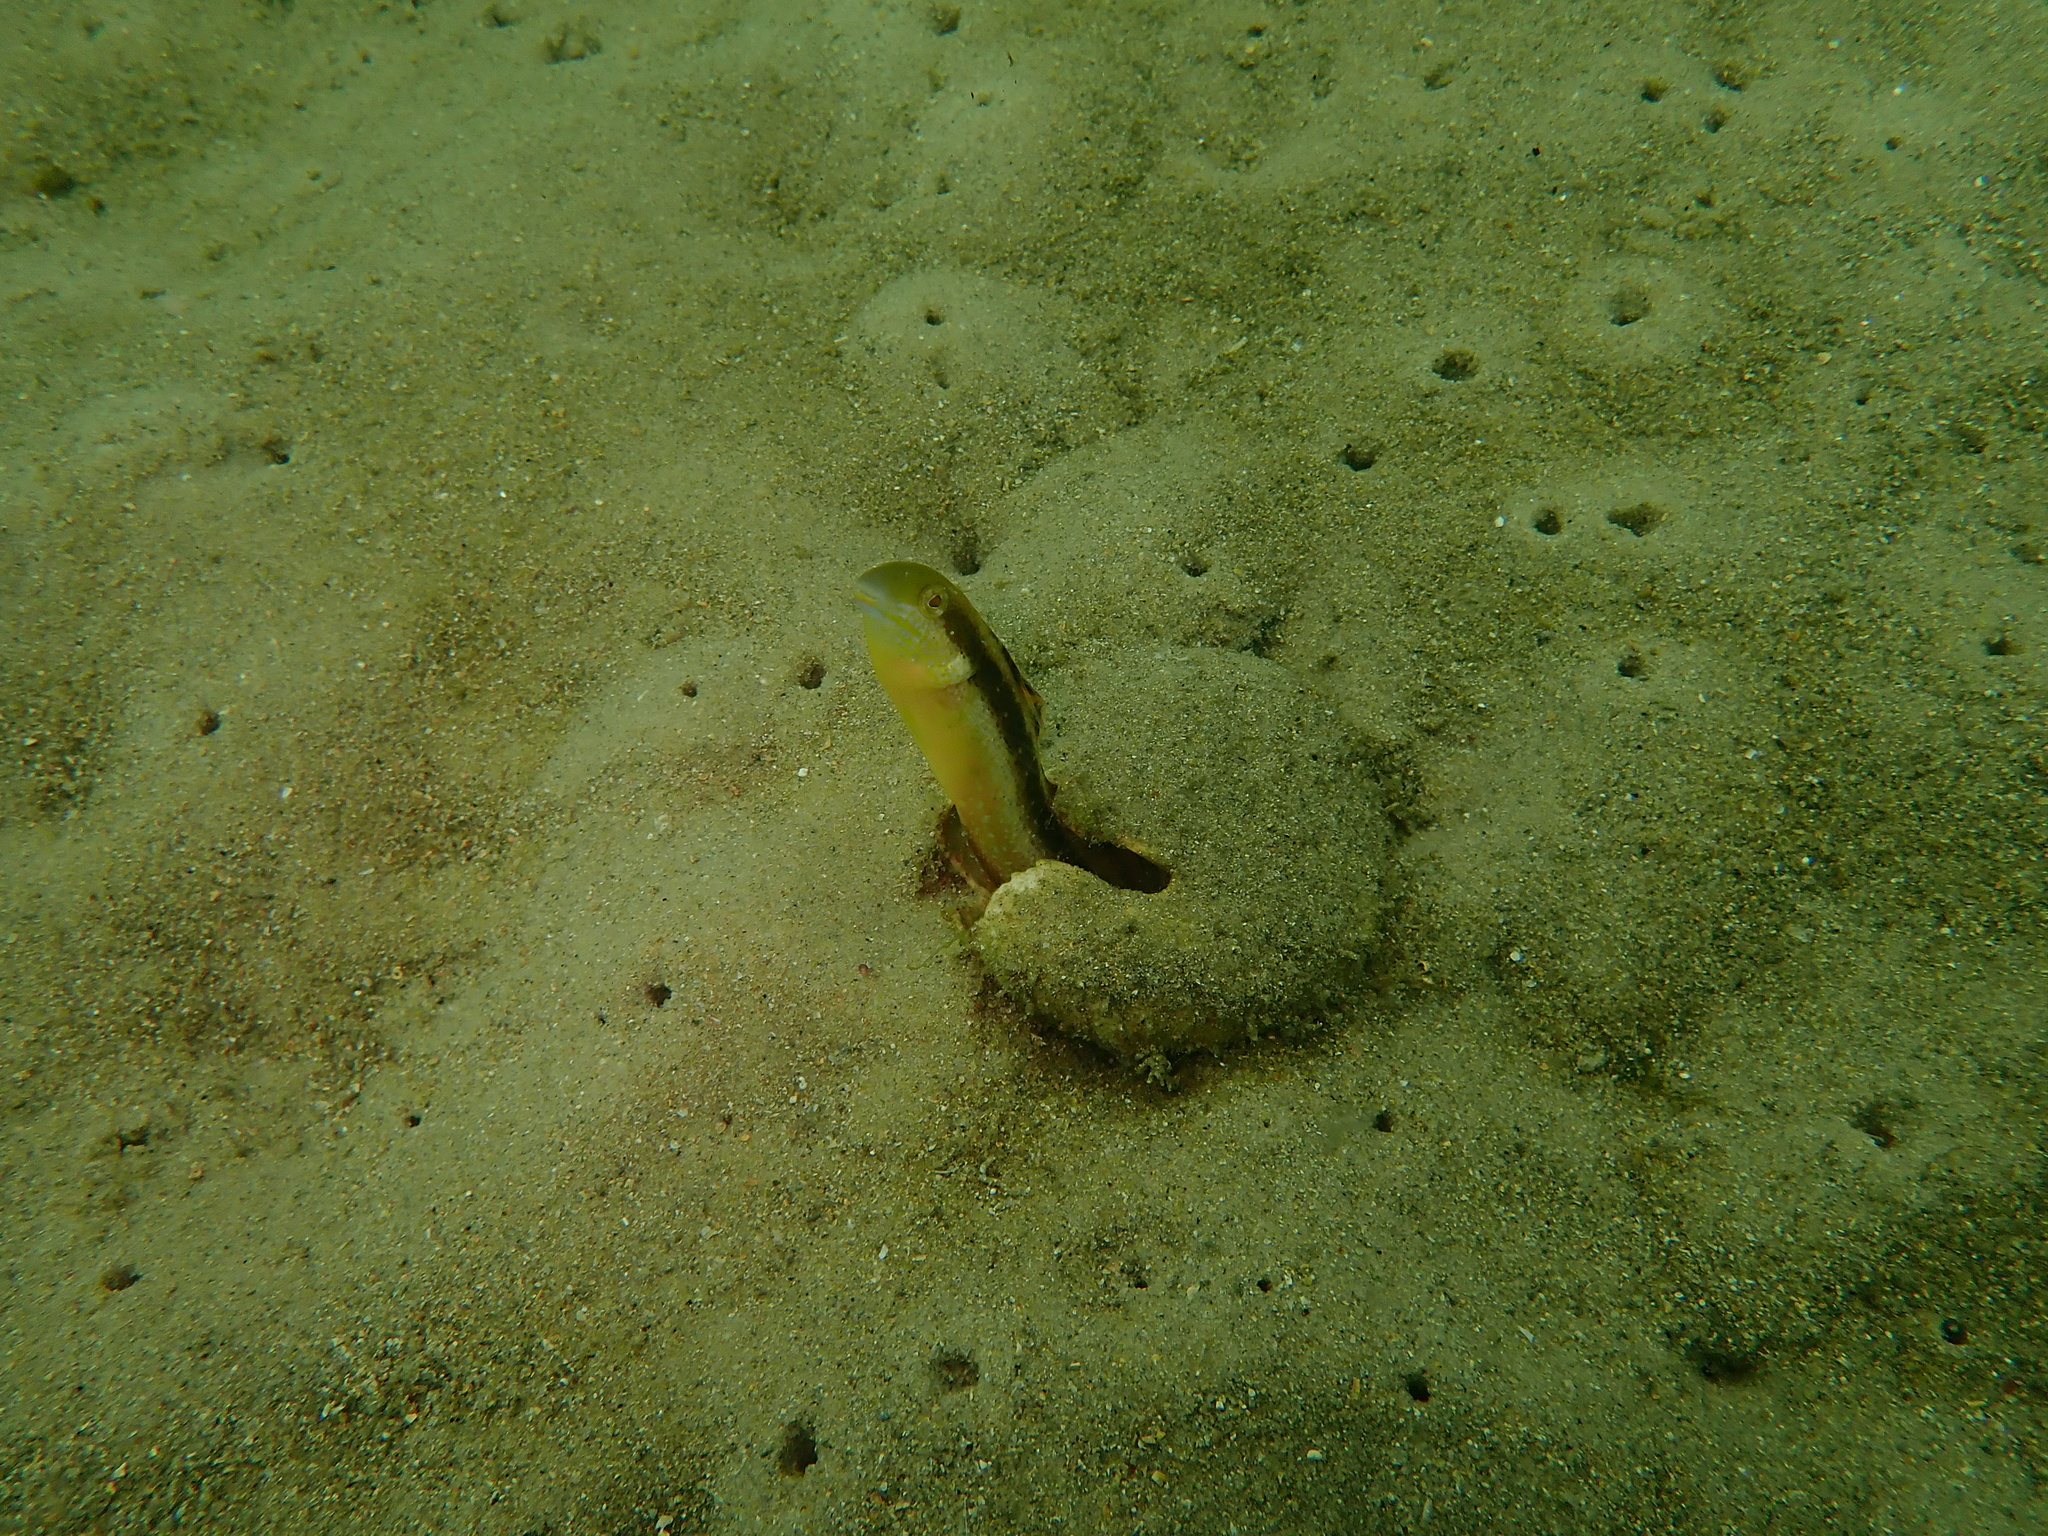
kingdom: Animalia
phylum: Chordata
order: Perciformes
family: Blenniidae
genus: Petroscirtes
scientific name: Petroscirtes lupus
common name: Wolf fangblenny
